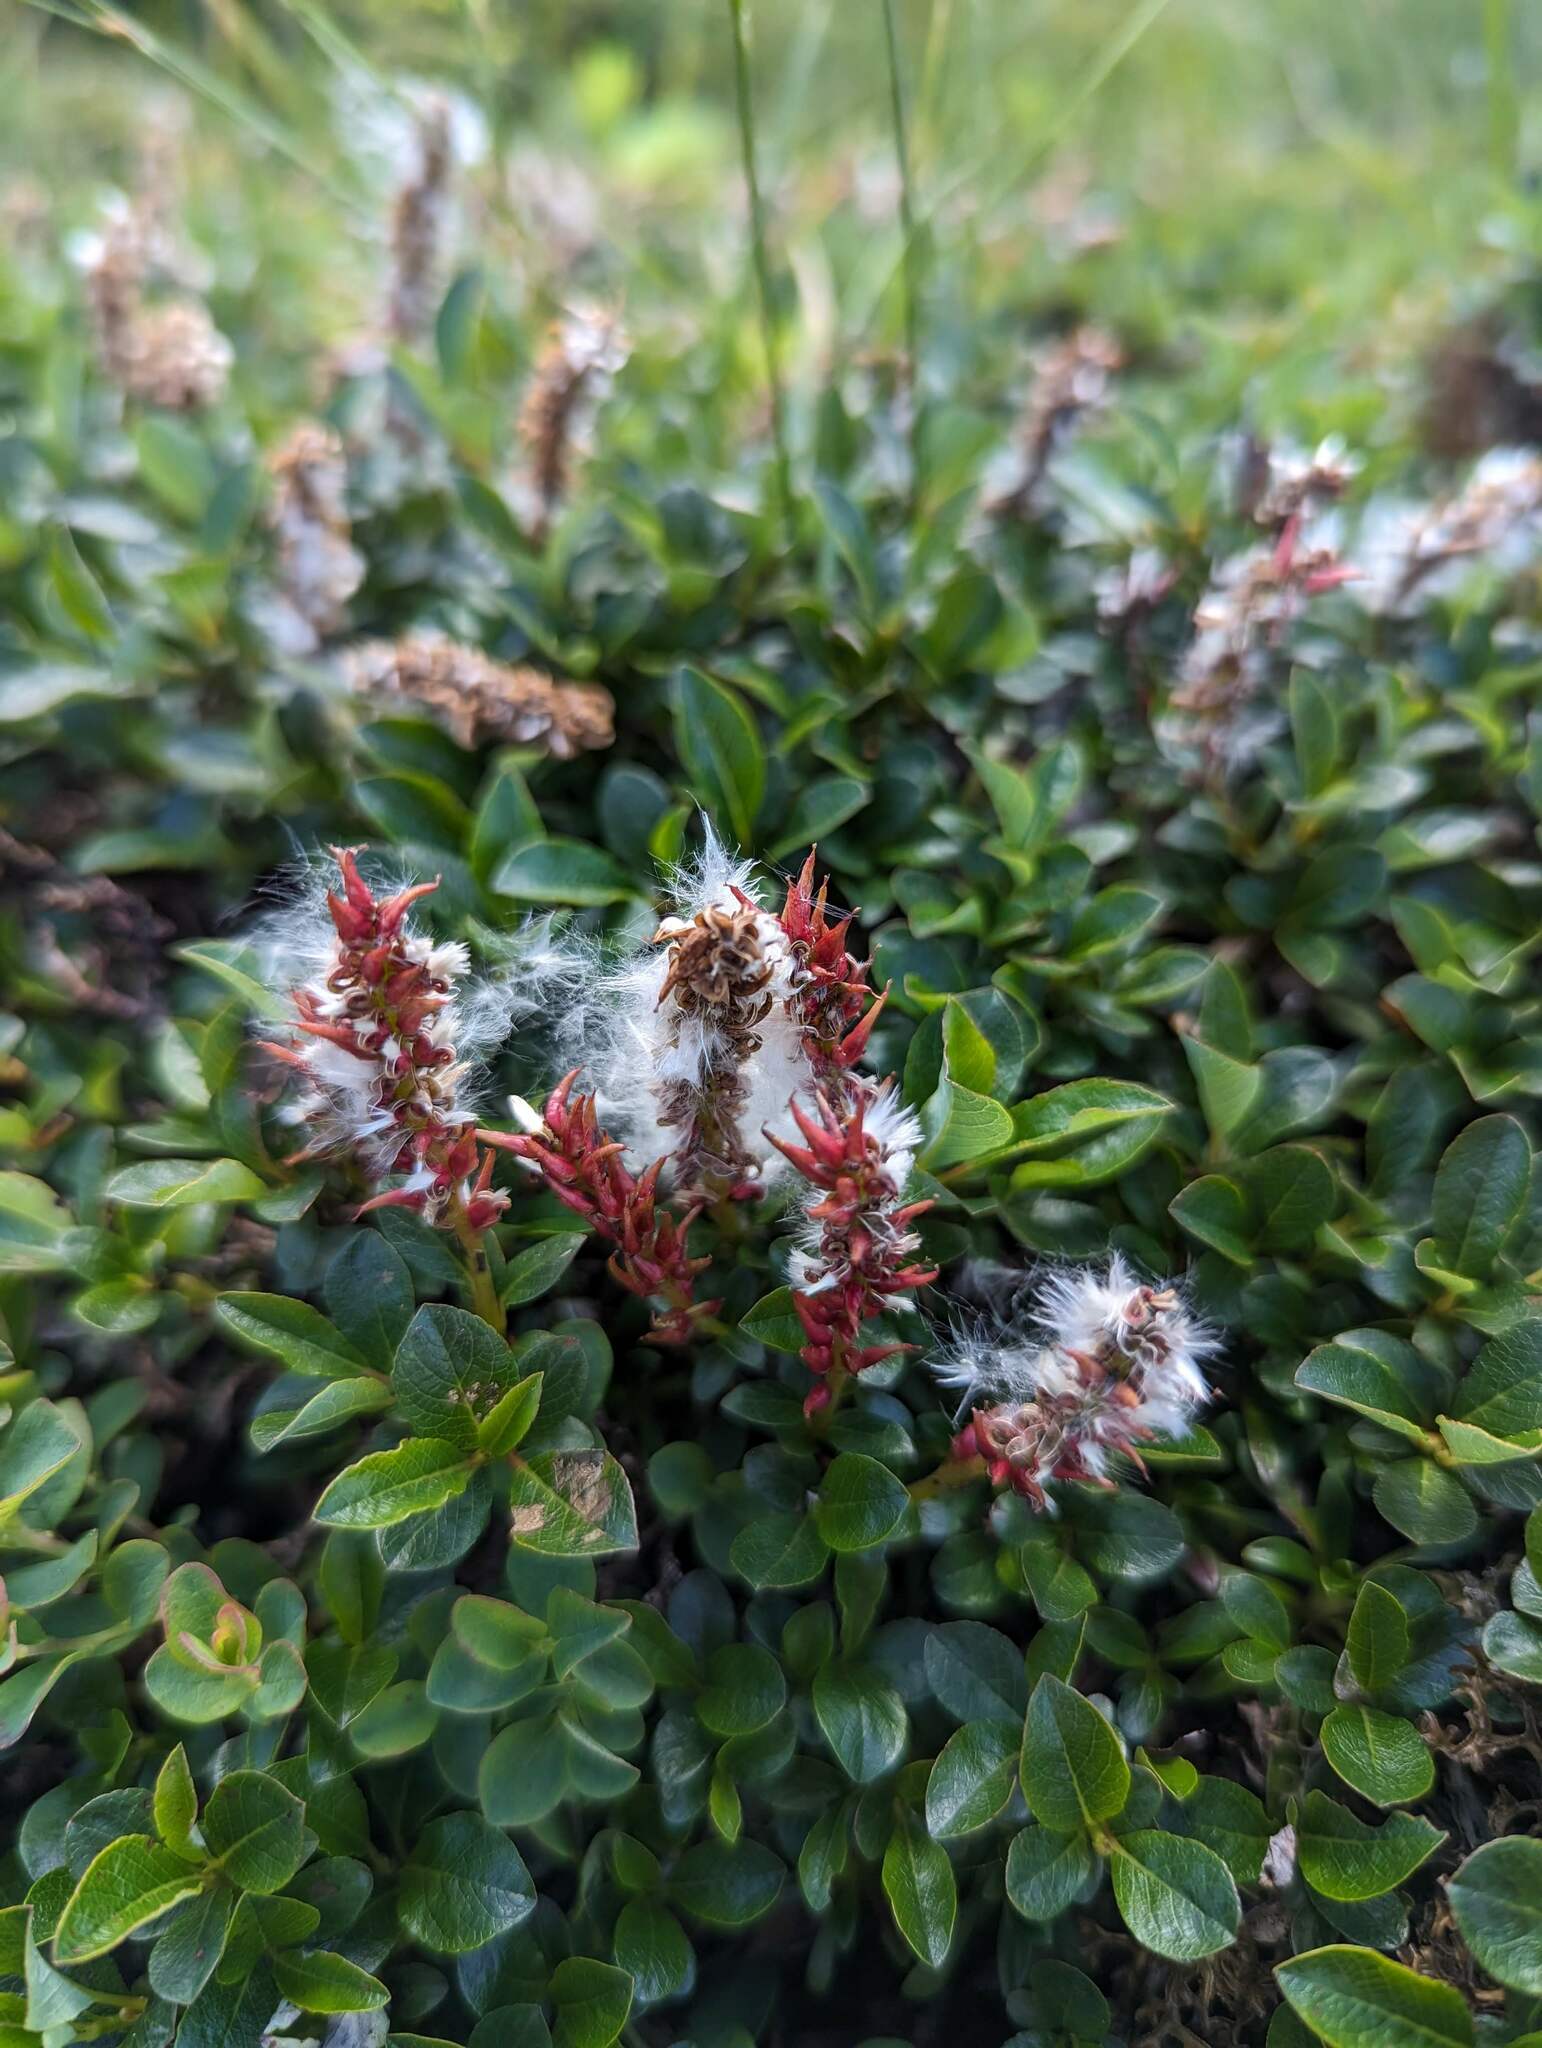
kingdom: Plantae
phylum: Tracheophyta
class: Magnoliopsida
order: Malpighiales
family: Salicaceae
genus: Salix
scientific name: Salix uva-ursi
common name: Bearberry willow
